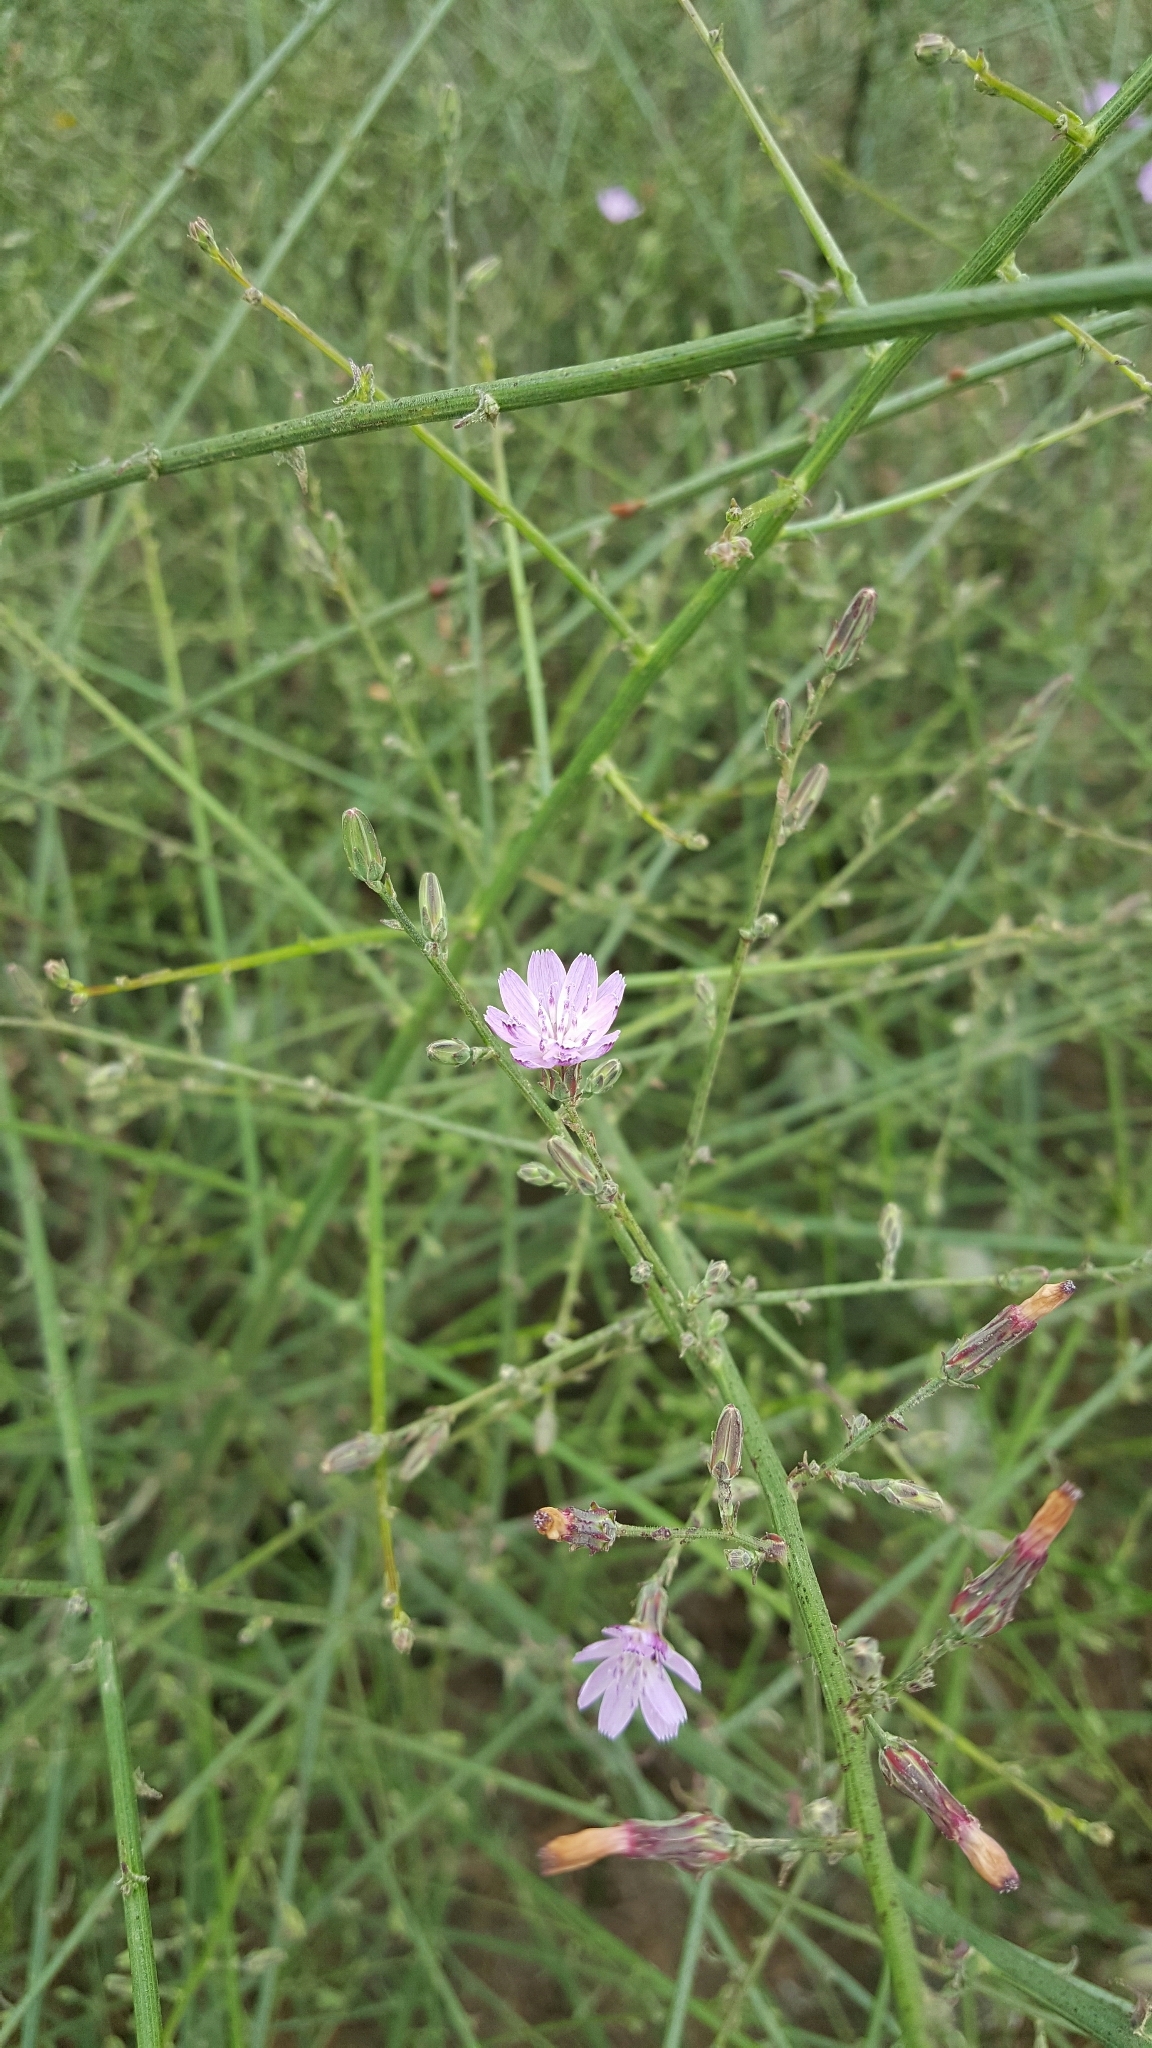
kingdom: Plantae
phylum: Tracheophyta
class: Magnoliopsida
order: Asterales
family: Asteraceae
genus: Stephanomeria
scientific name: Stephanomeria virgata
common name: Virgate wirelettuce
